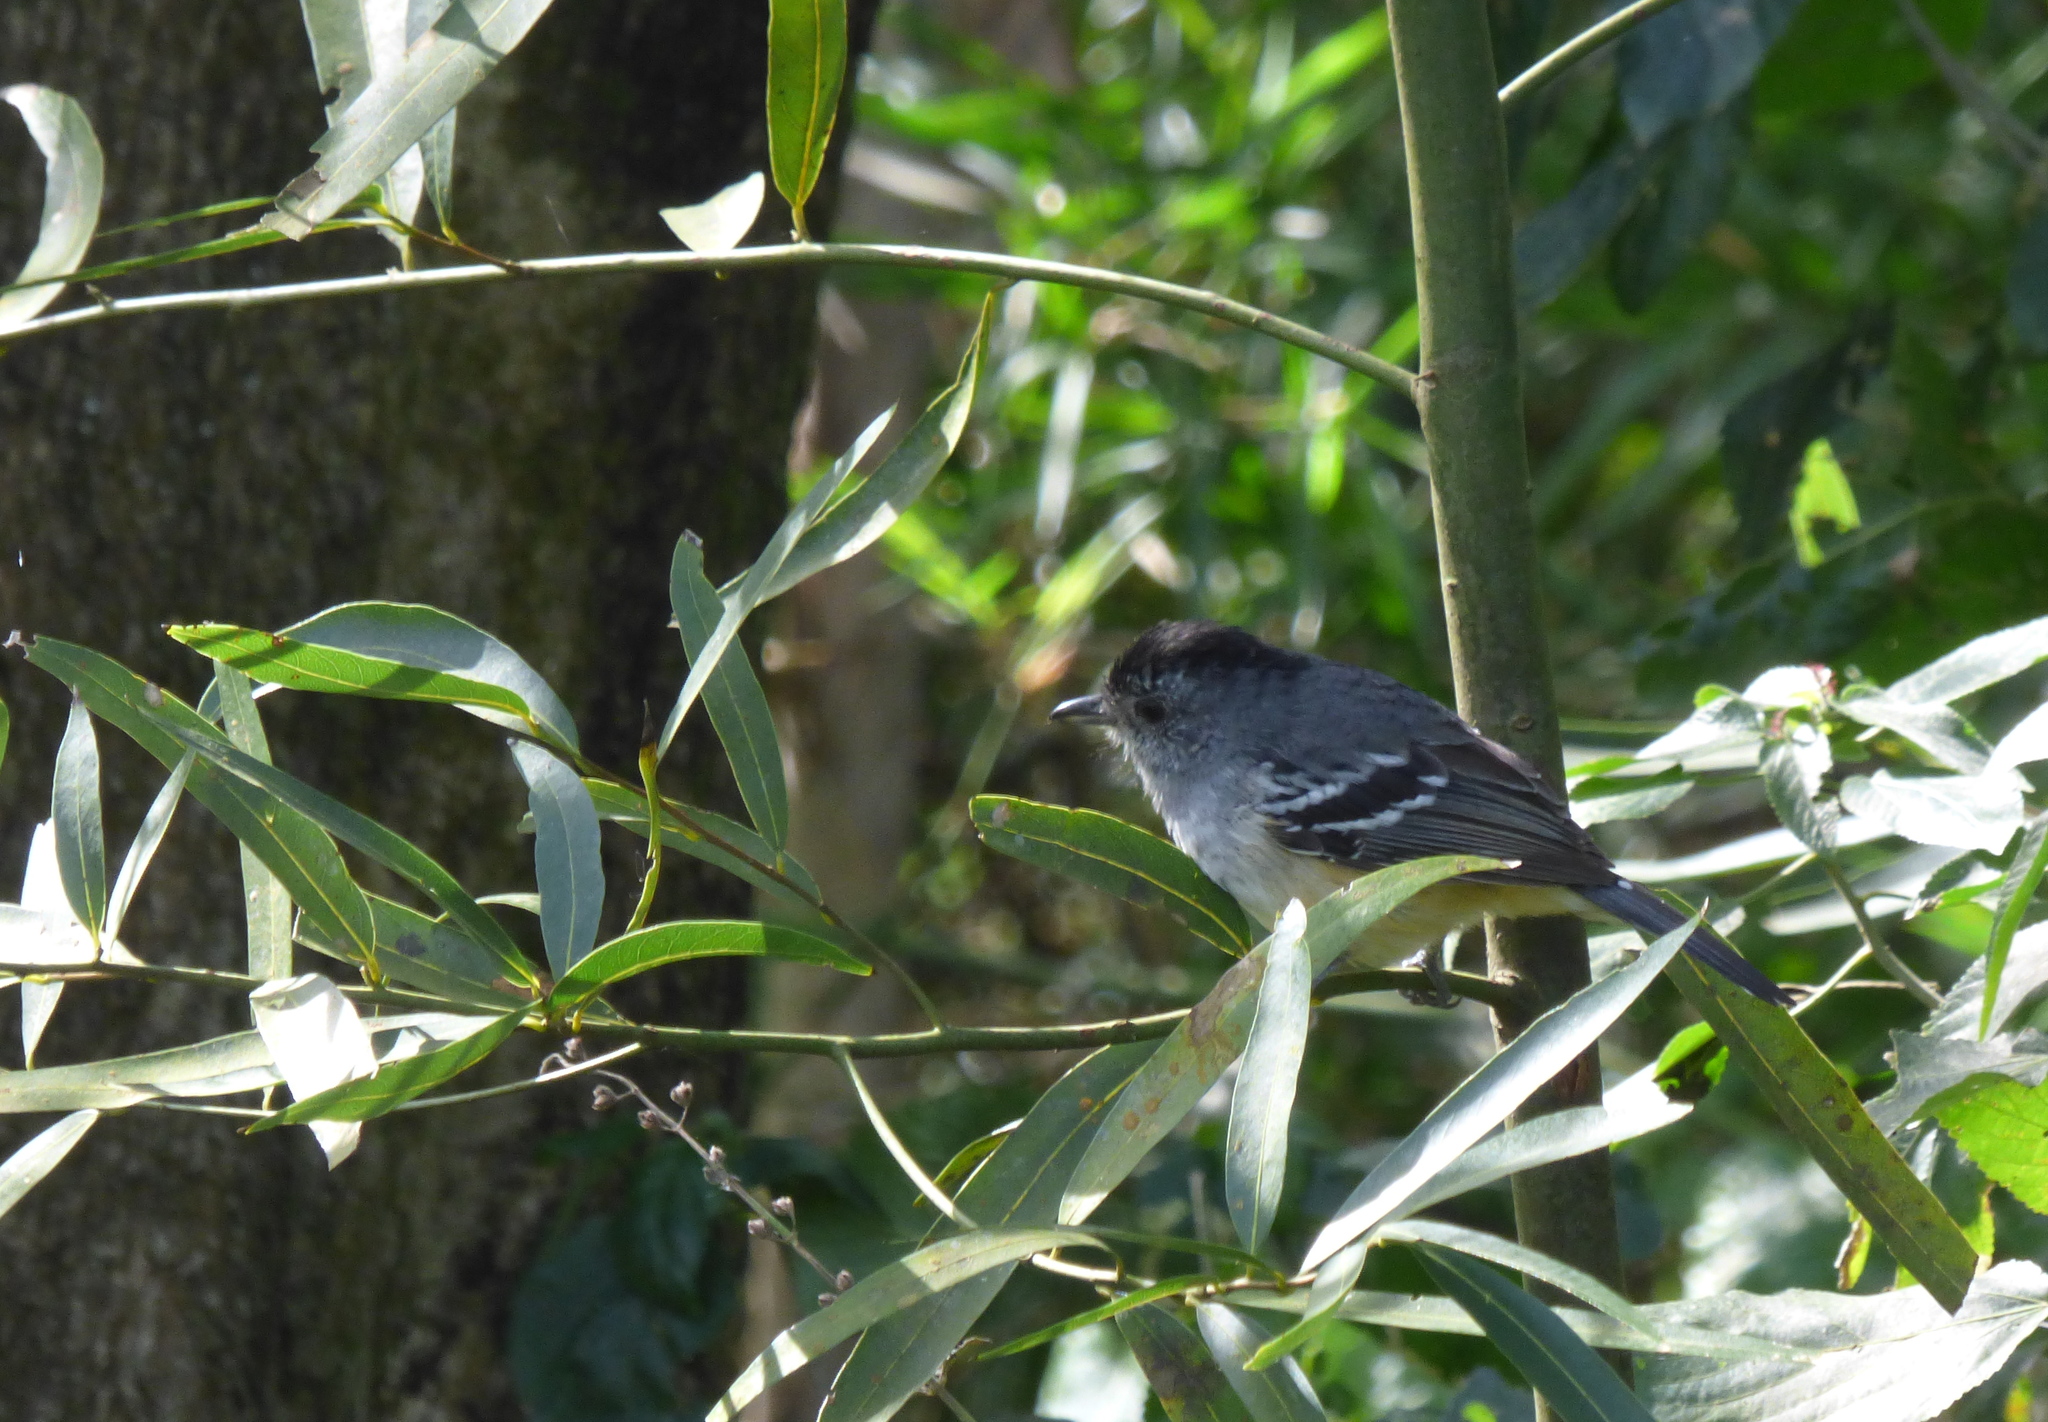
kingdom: Animalia
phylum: Chordata
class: Aves
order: Passeriformes
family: Thamnophilidae
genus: Thamnophilus
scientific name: Thamnophilus caerulescens
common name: Variable antshrike
